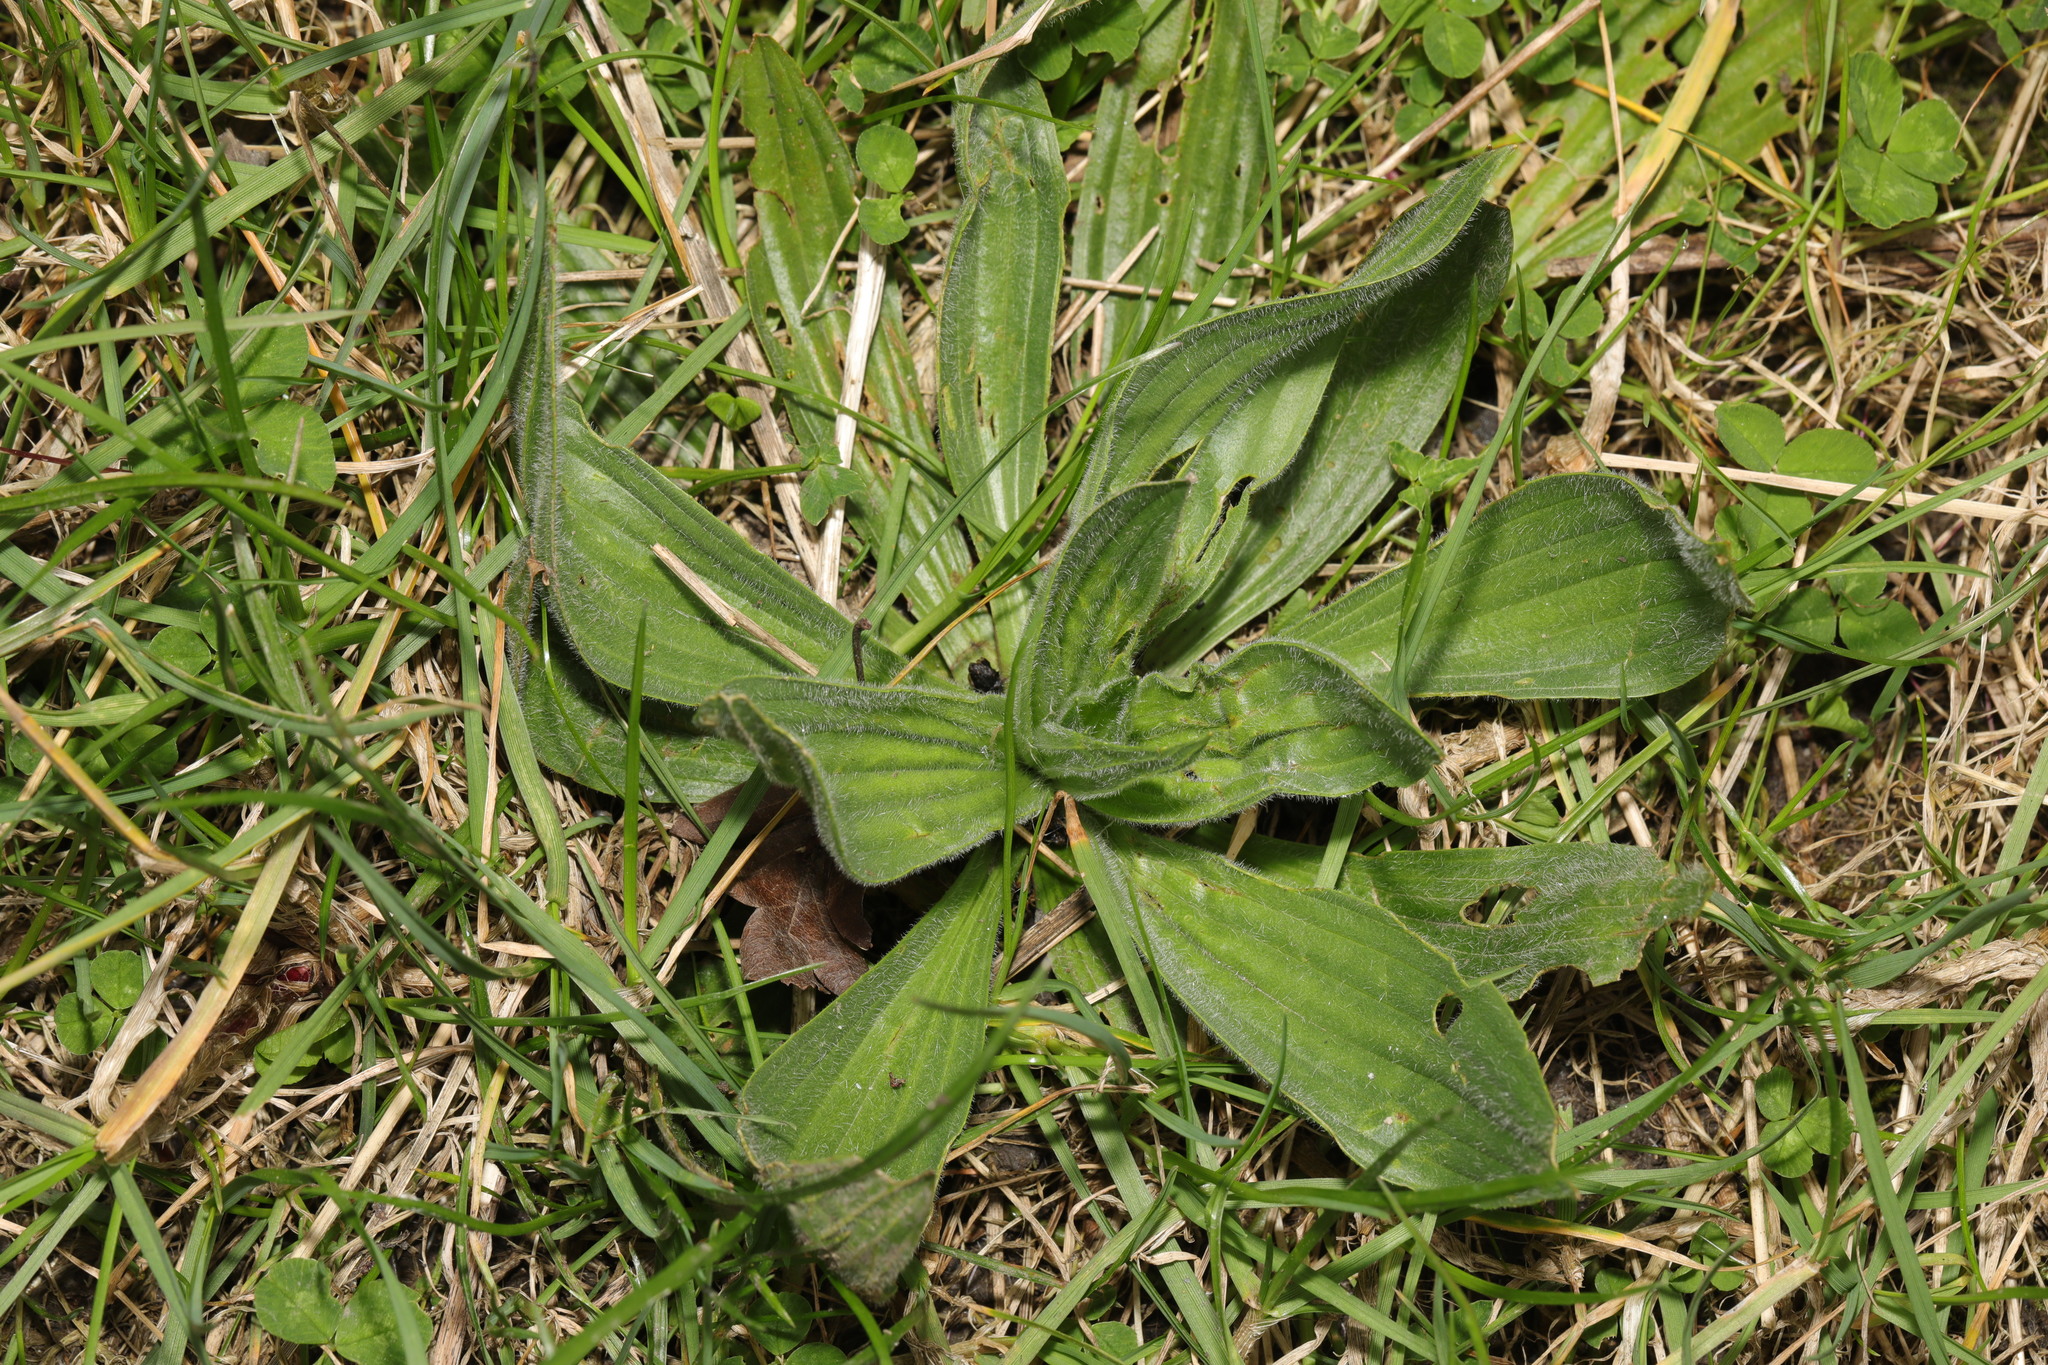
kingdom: Plantae
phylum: Tracheophyta
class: Magnoliopsida
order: Lamiales
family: Plantaginaceae
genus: Plantago
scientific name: Plantago media
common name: Hoary plantain
